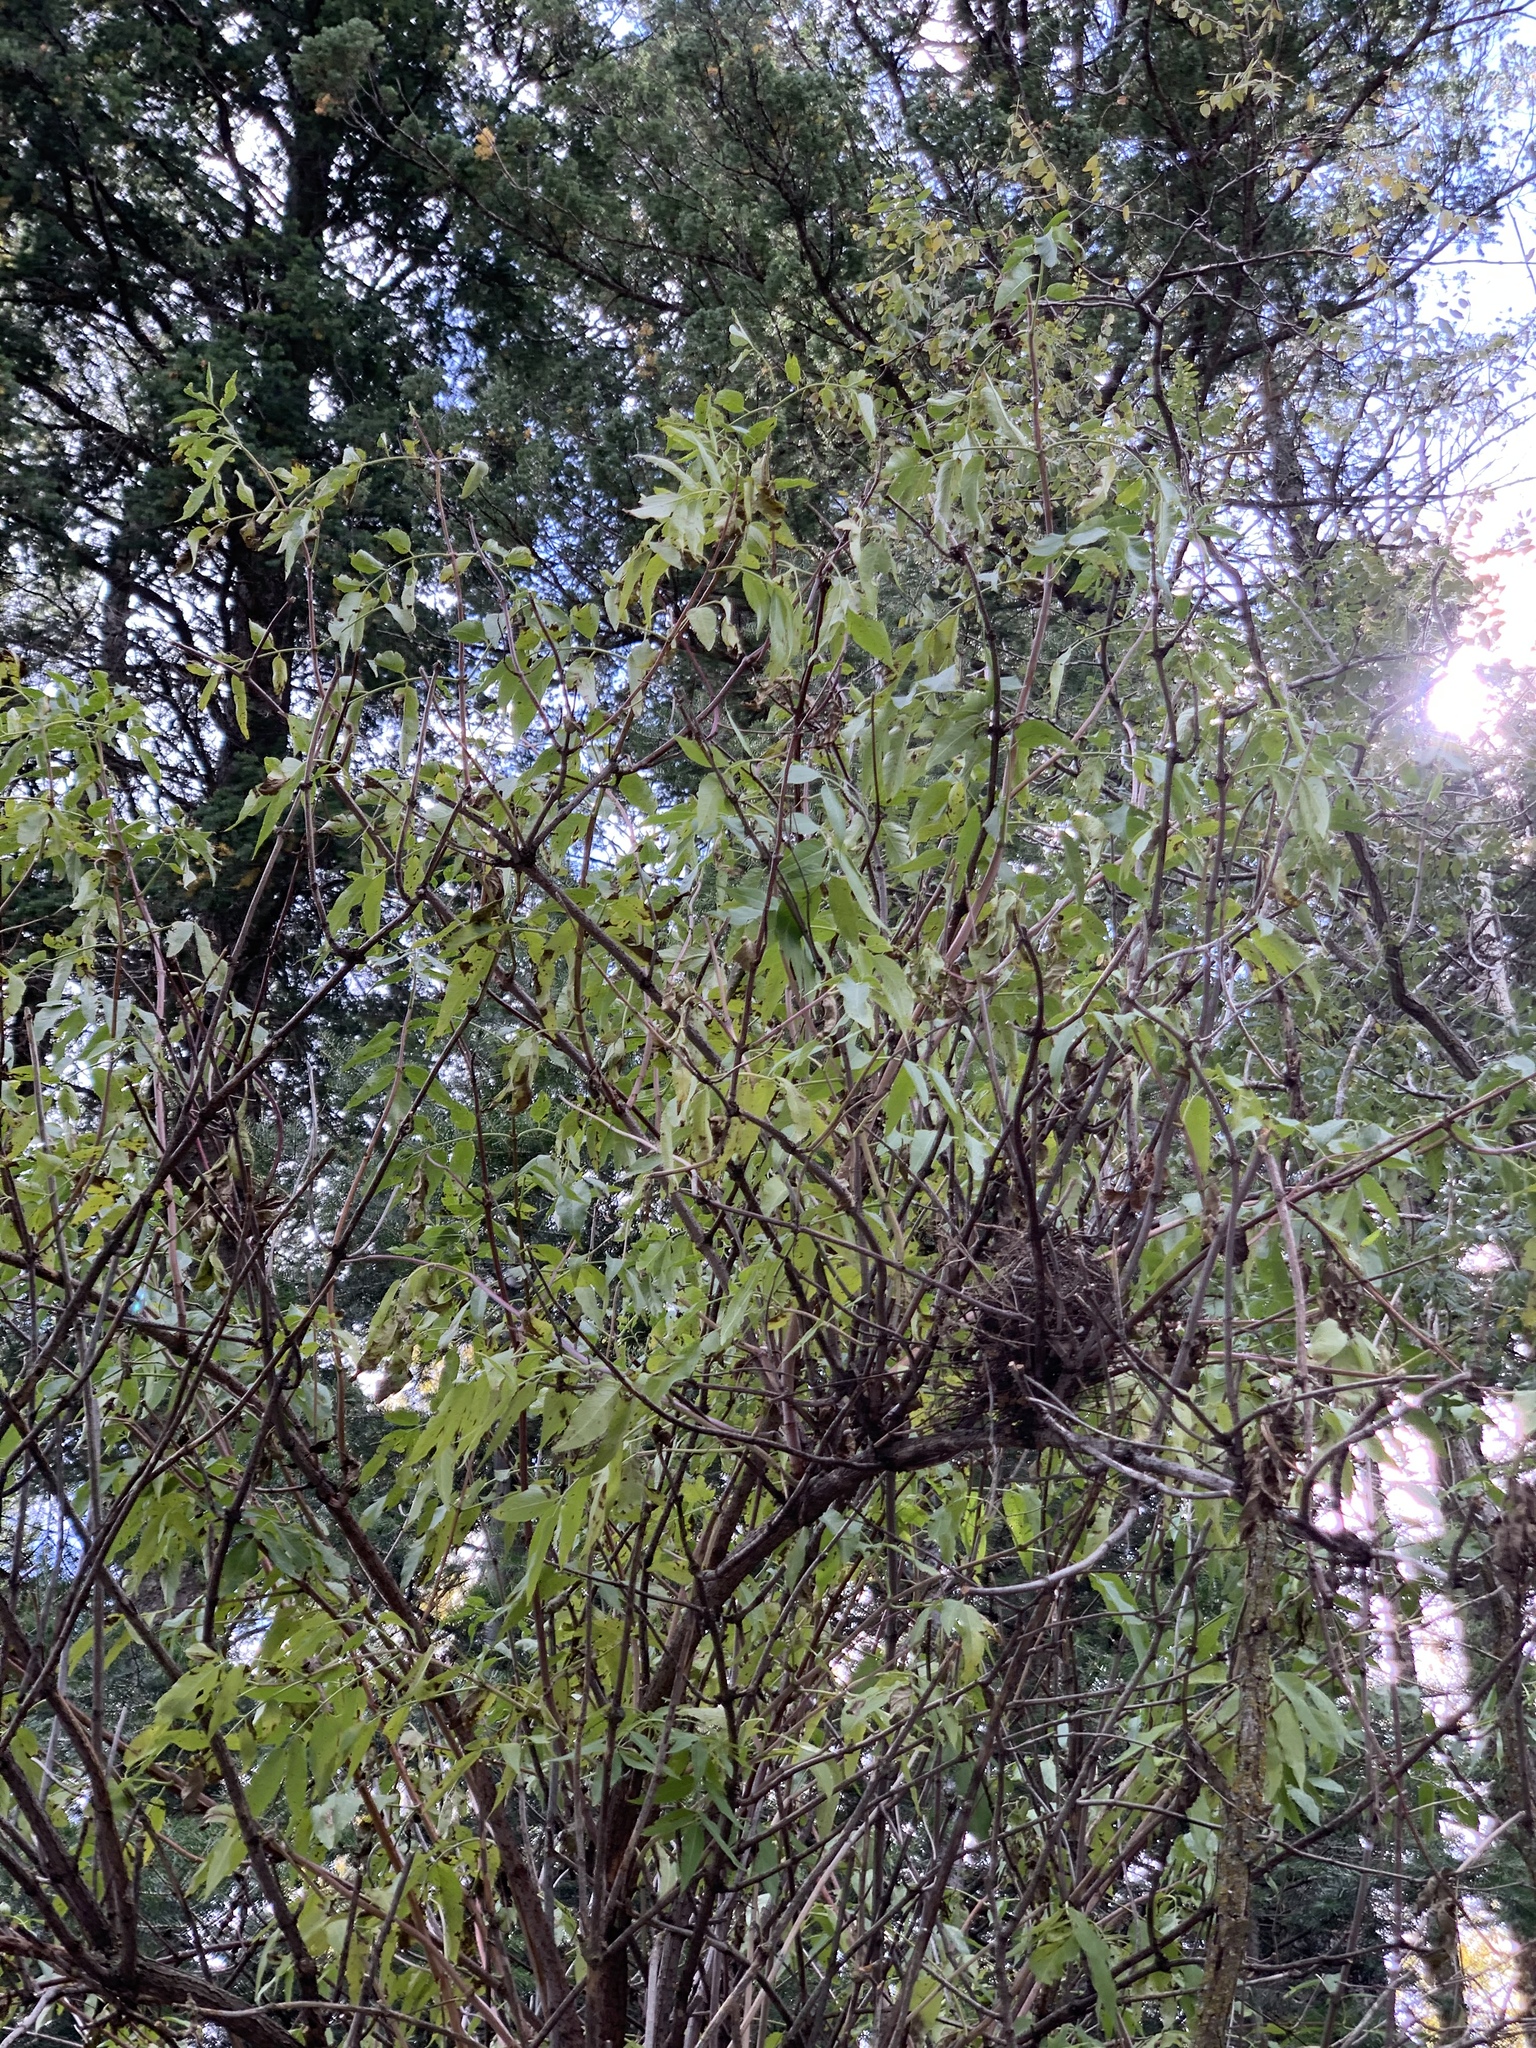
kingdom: Plantae
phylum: Tracheophyta
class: Magnoliopsida
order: Dipsacales
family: Viburnaceae
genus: Sambucus
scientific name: Sambucus cerulea
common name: Blue elder
